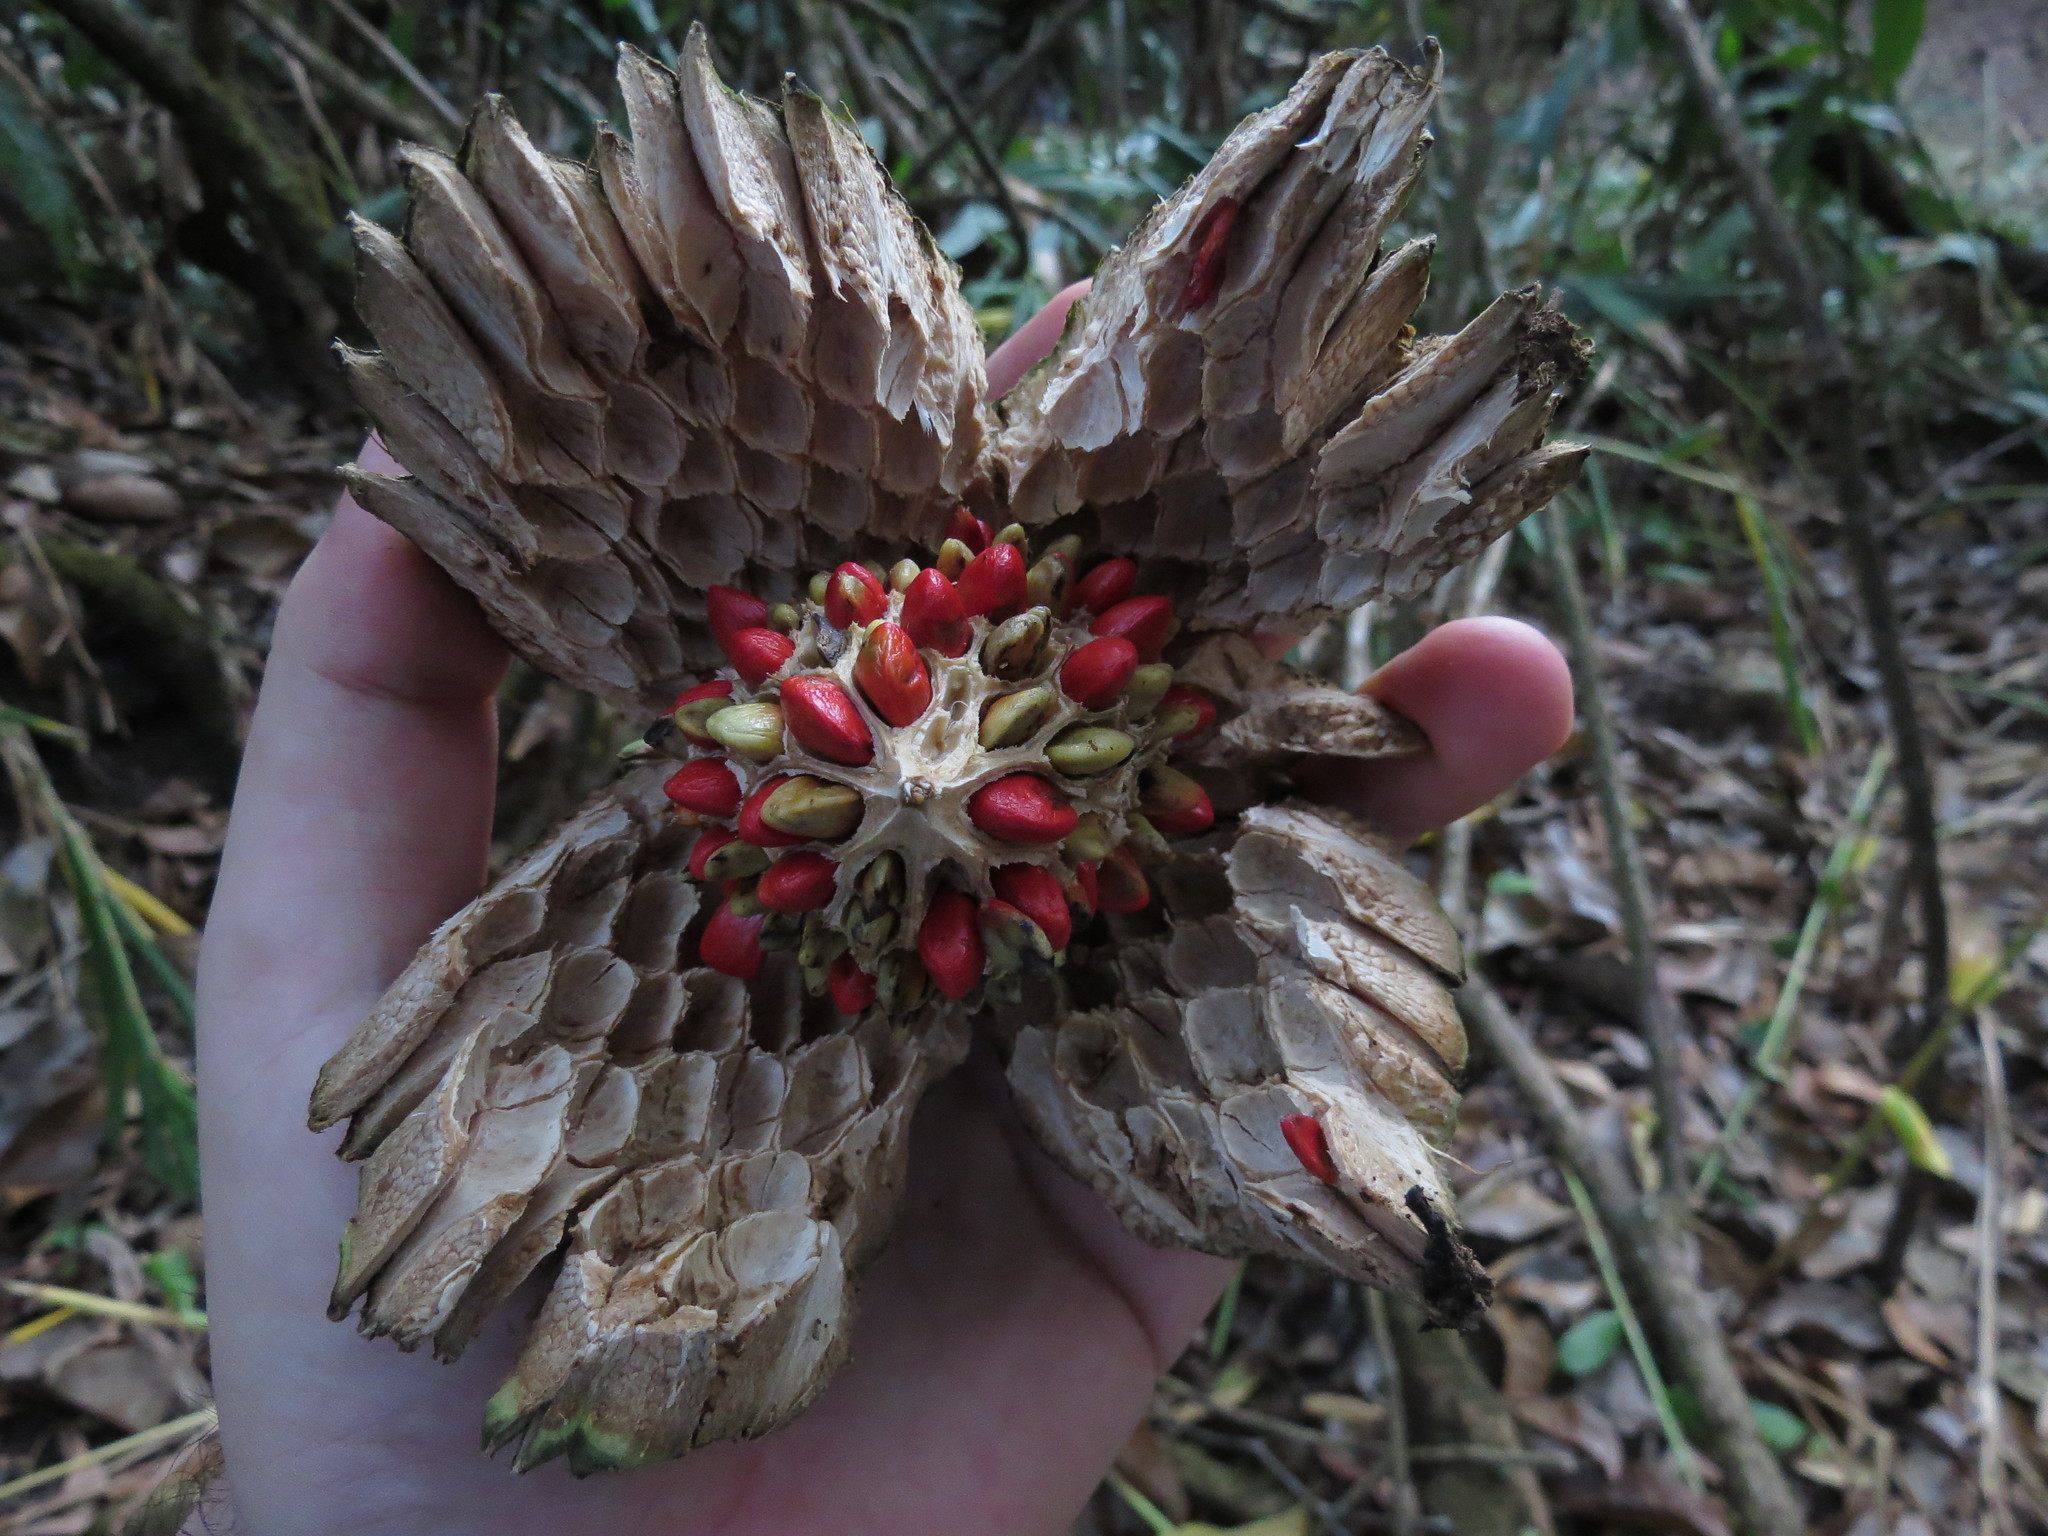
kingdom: Plantae
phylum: Tracheophyta
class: Magnoliopsida
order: Magnoliales
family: Magnoliaceae
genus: Magnolia
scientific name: Magnolia ovata
